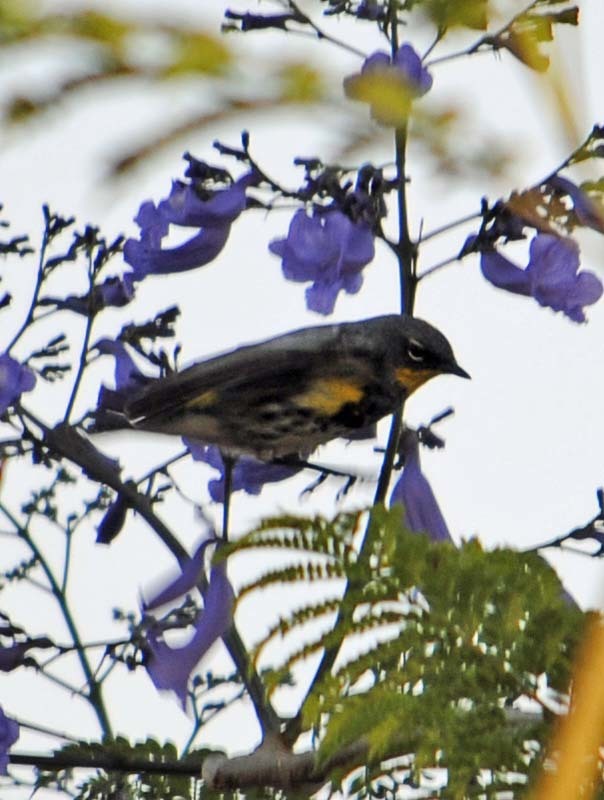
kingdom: Animalia
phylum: Chordata
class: Aves
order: Passeriformes
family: Parulidae
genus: Setophaga
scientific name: Setophaga auduboni
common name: Audubon's warbler
